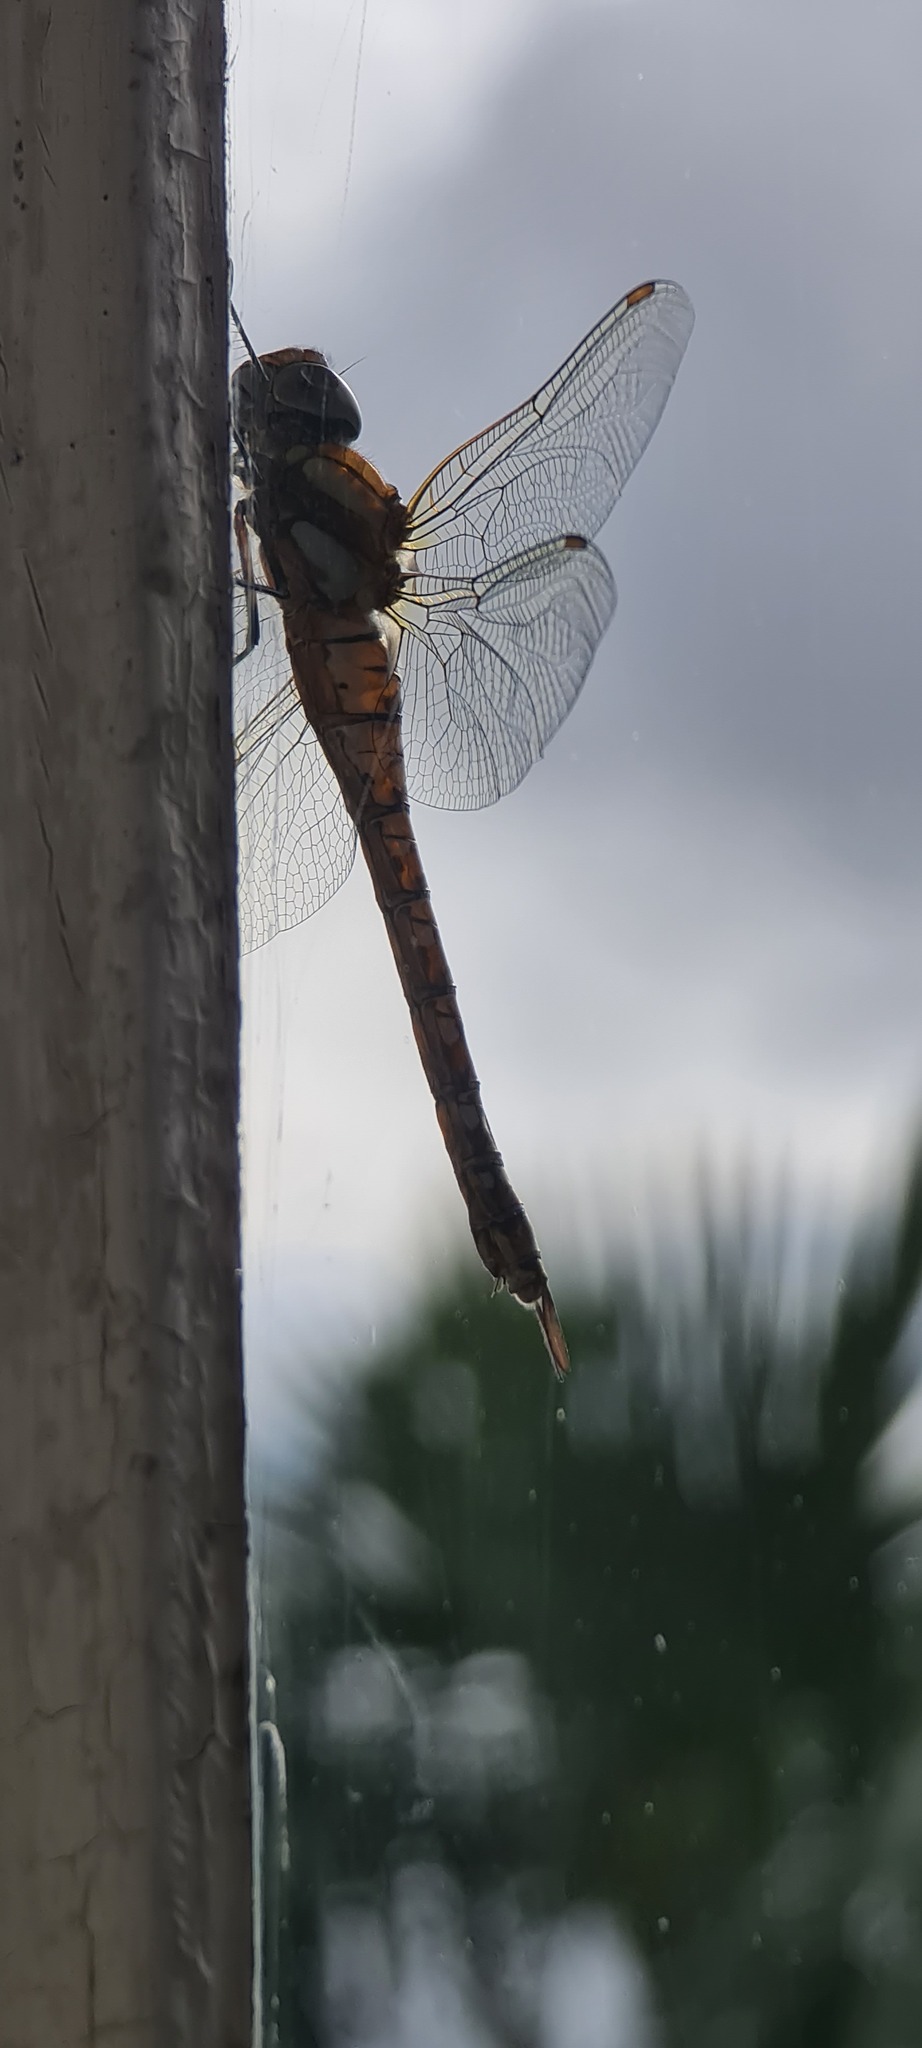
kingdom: Animalia
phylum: Arthropoda
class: Insecta
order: Odonata
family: Aeshnidae
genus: Aeshna
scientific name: Aeshna mixta
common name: Migrant hawker
